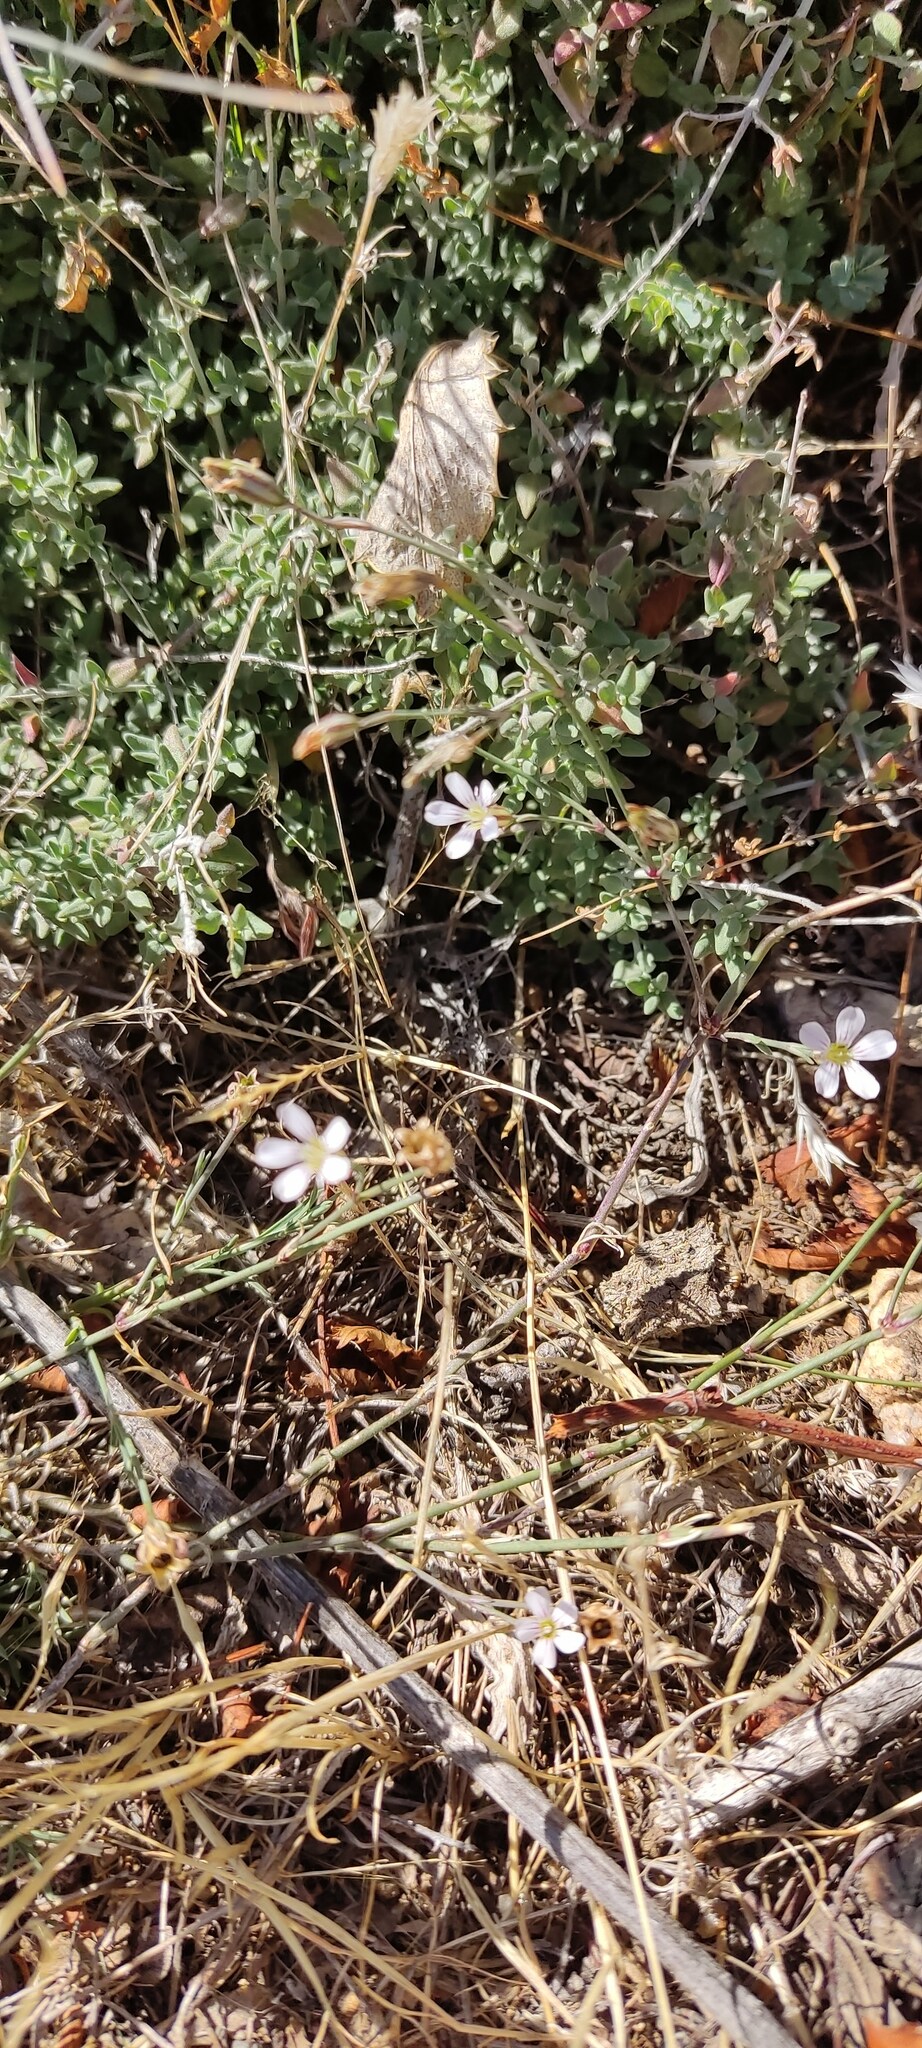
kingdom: Plantae
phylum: Tracheophyta
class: Magnoliopsida
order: Caryophyllales
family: Caryophyllaceae
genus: Petrorhagia
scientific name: Petrorhagia saxifraga
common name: Tunicflower
